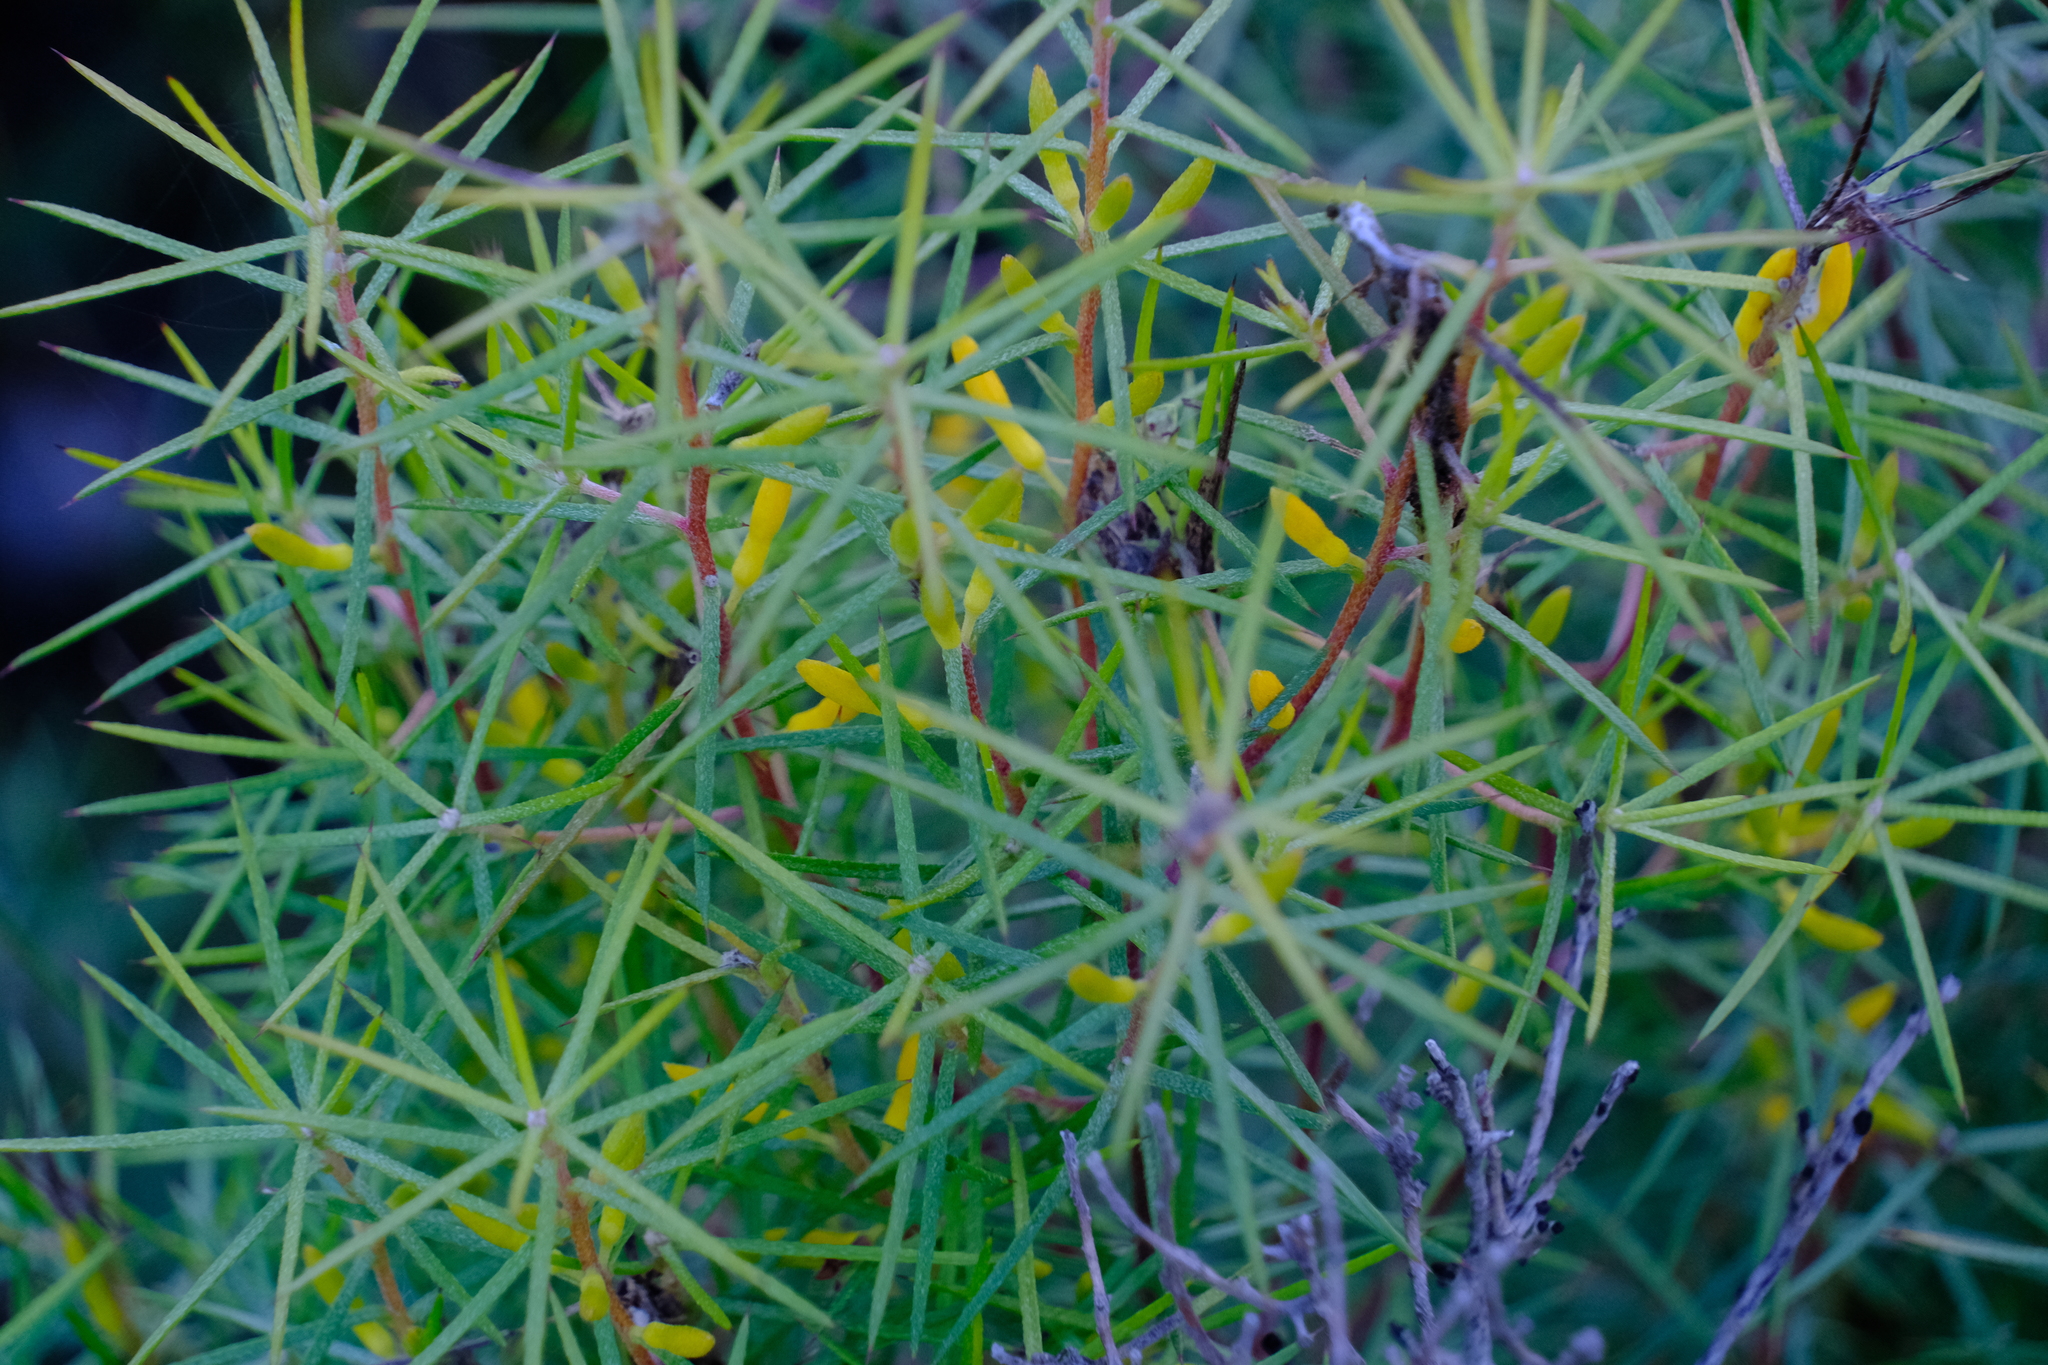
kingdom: Plantae
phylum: Tracheophyta
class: Magnoliopsida
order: Proteales
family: Proteaceae
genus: Persoonia
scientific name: Persoonia juniperina
